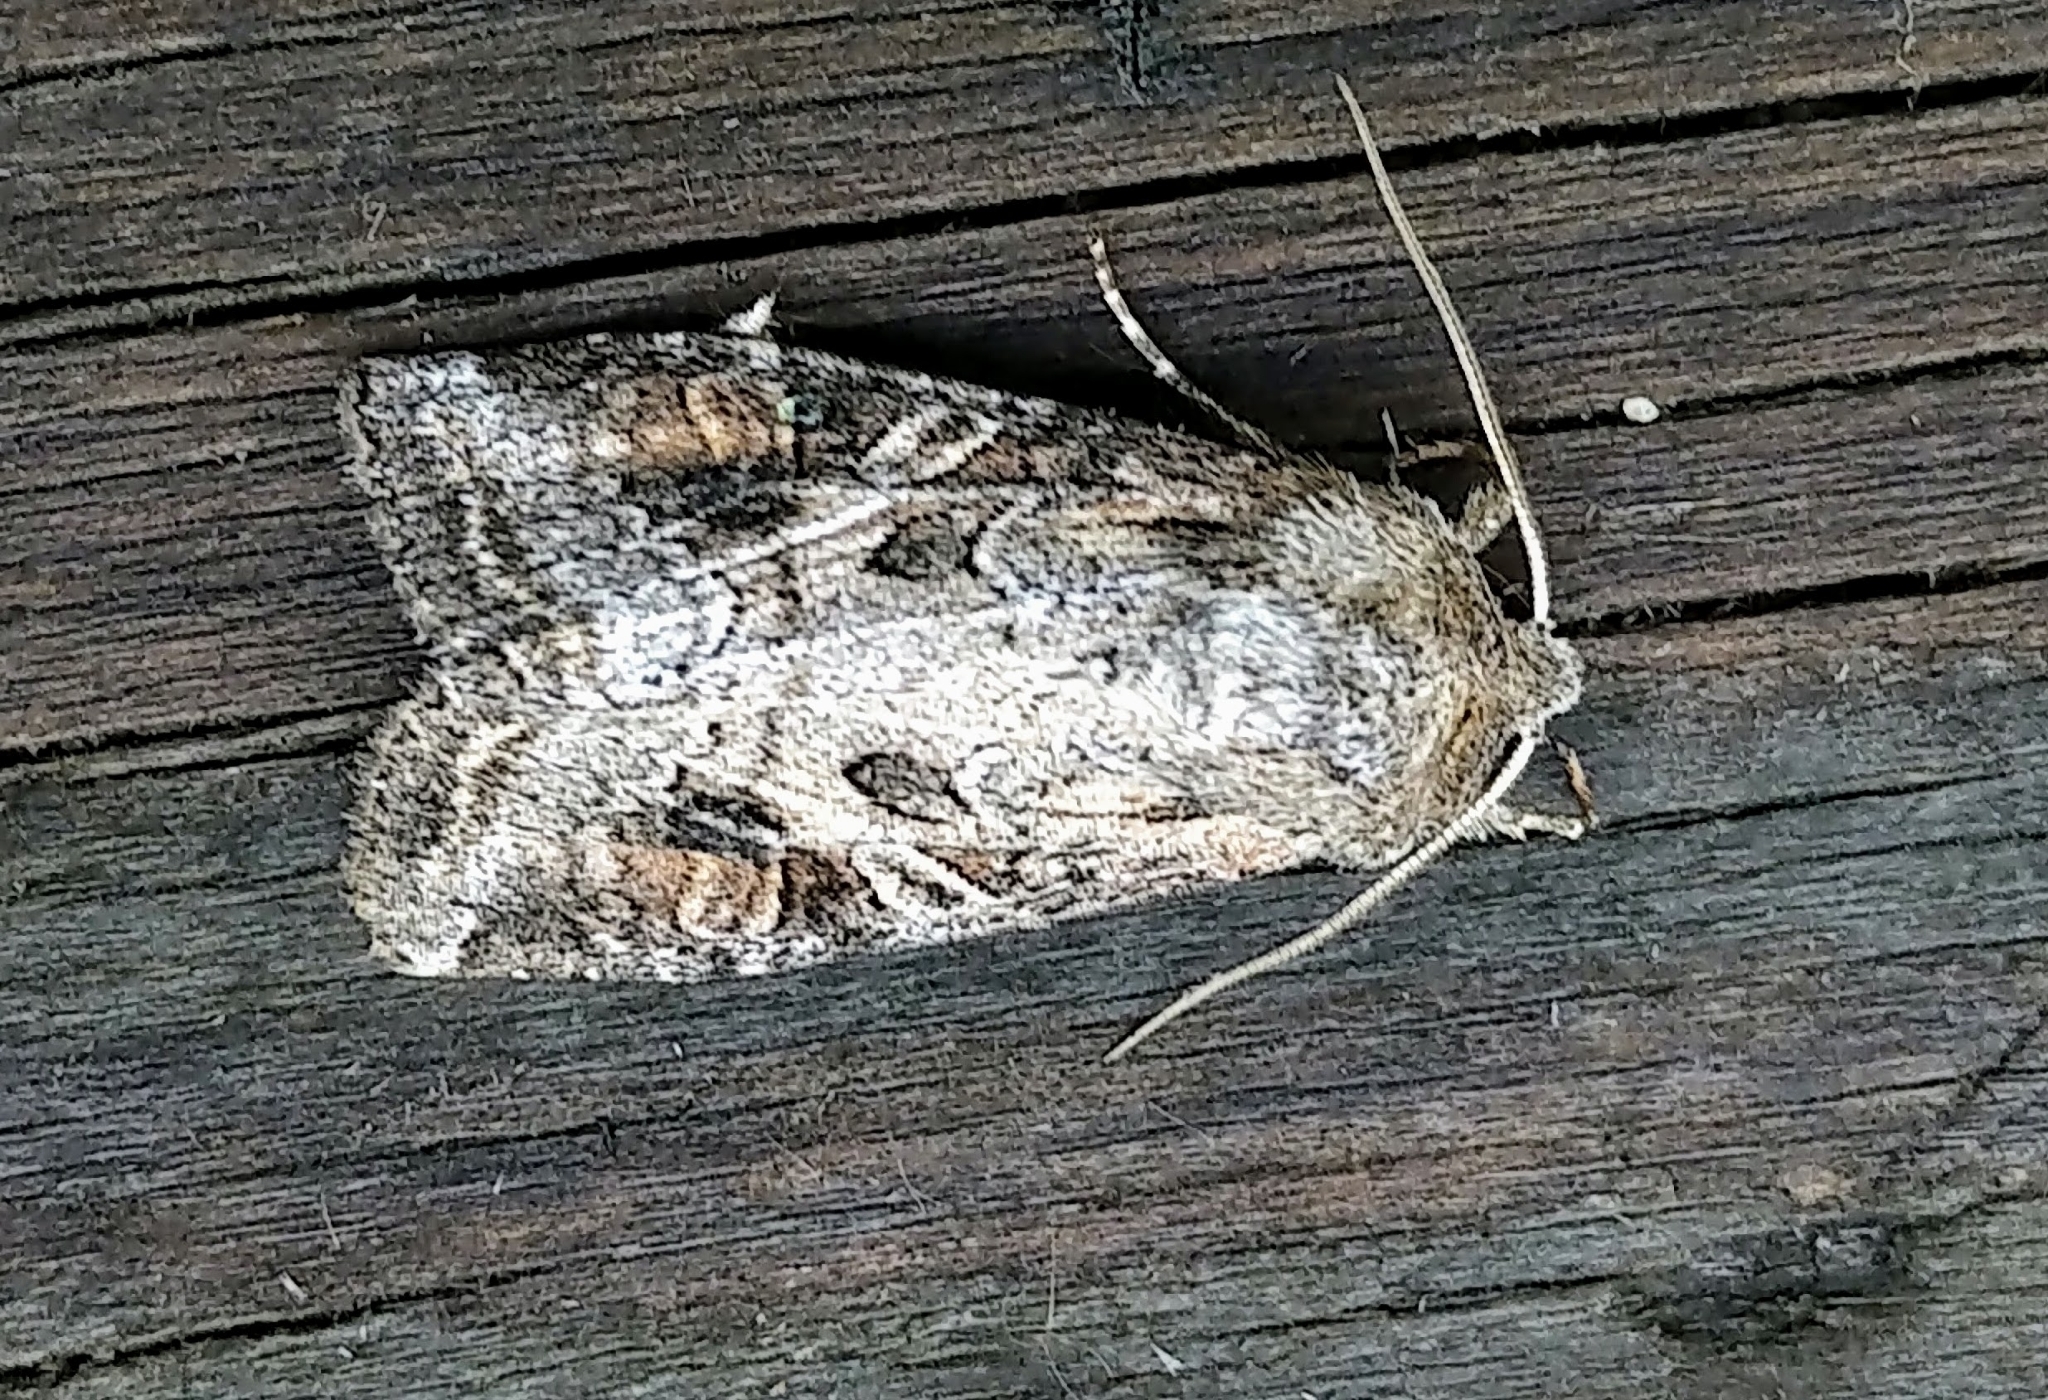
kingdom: Animalia
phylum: Arthropoda
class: Insecta
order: Lepidoptera
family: Noctuidae
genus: Trichordestra
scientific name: Trichordestra liquida
